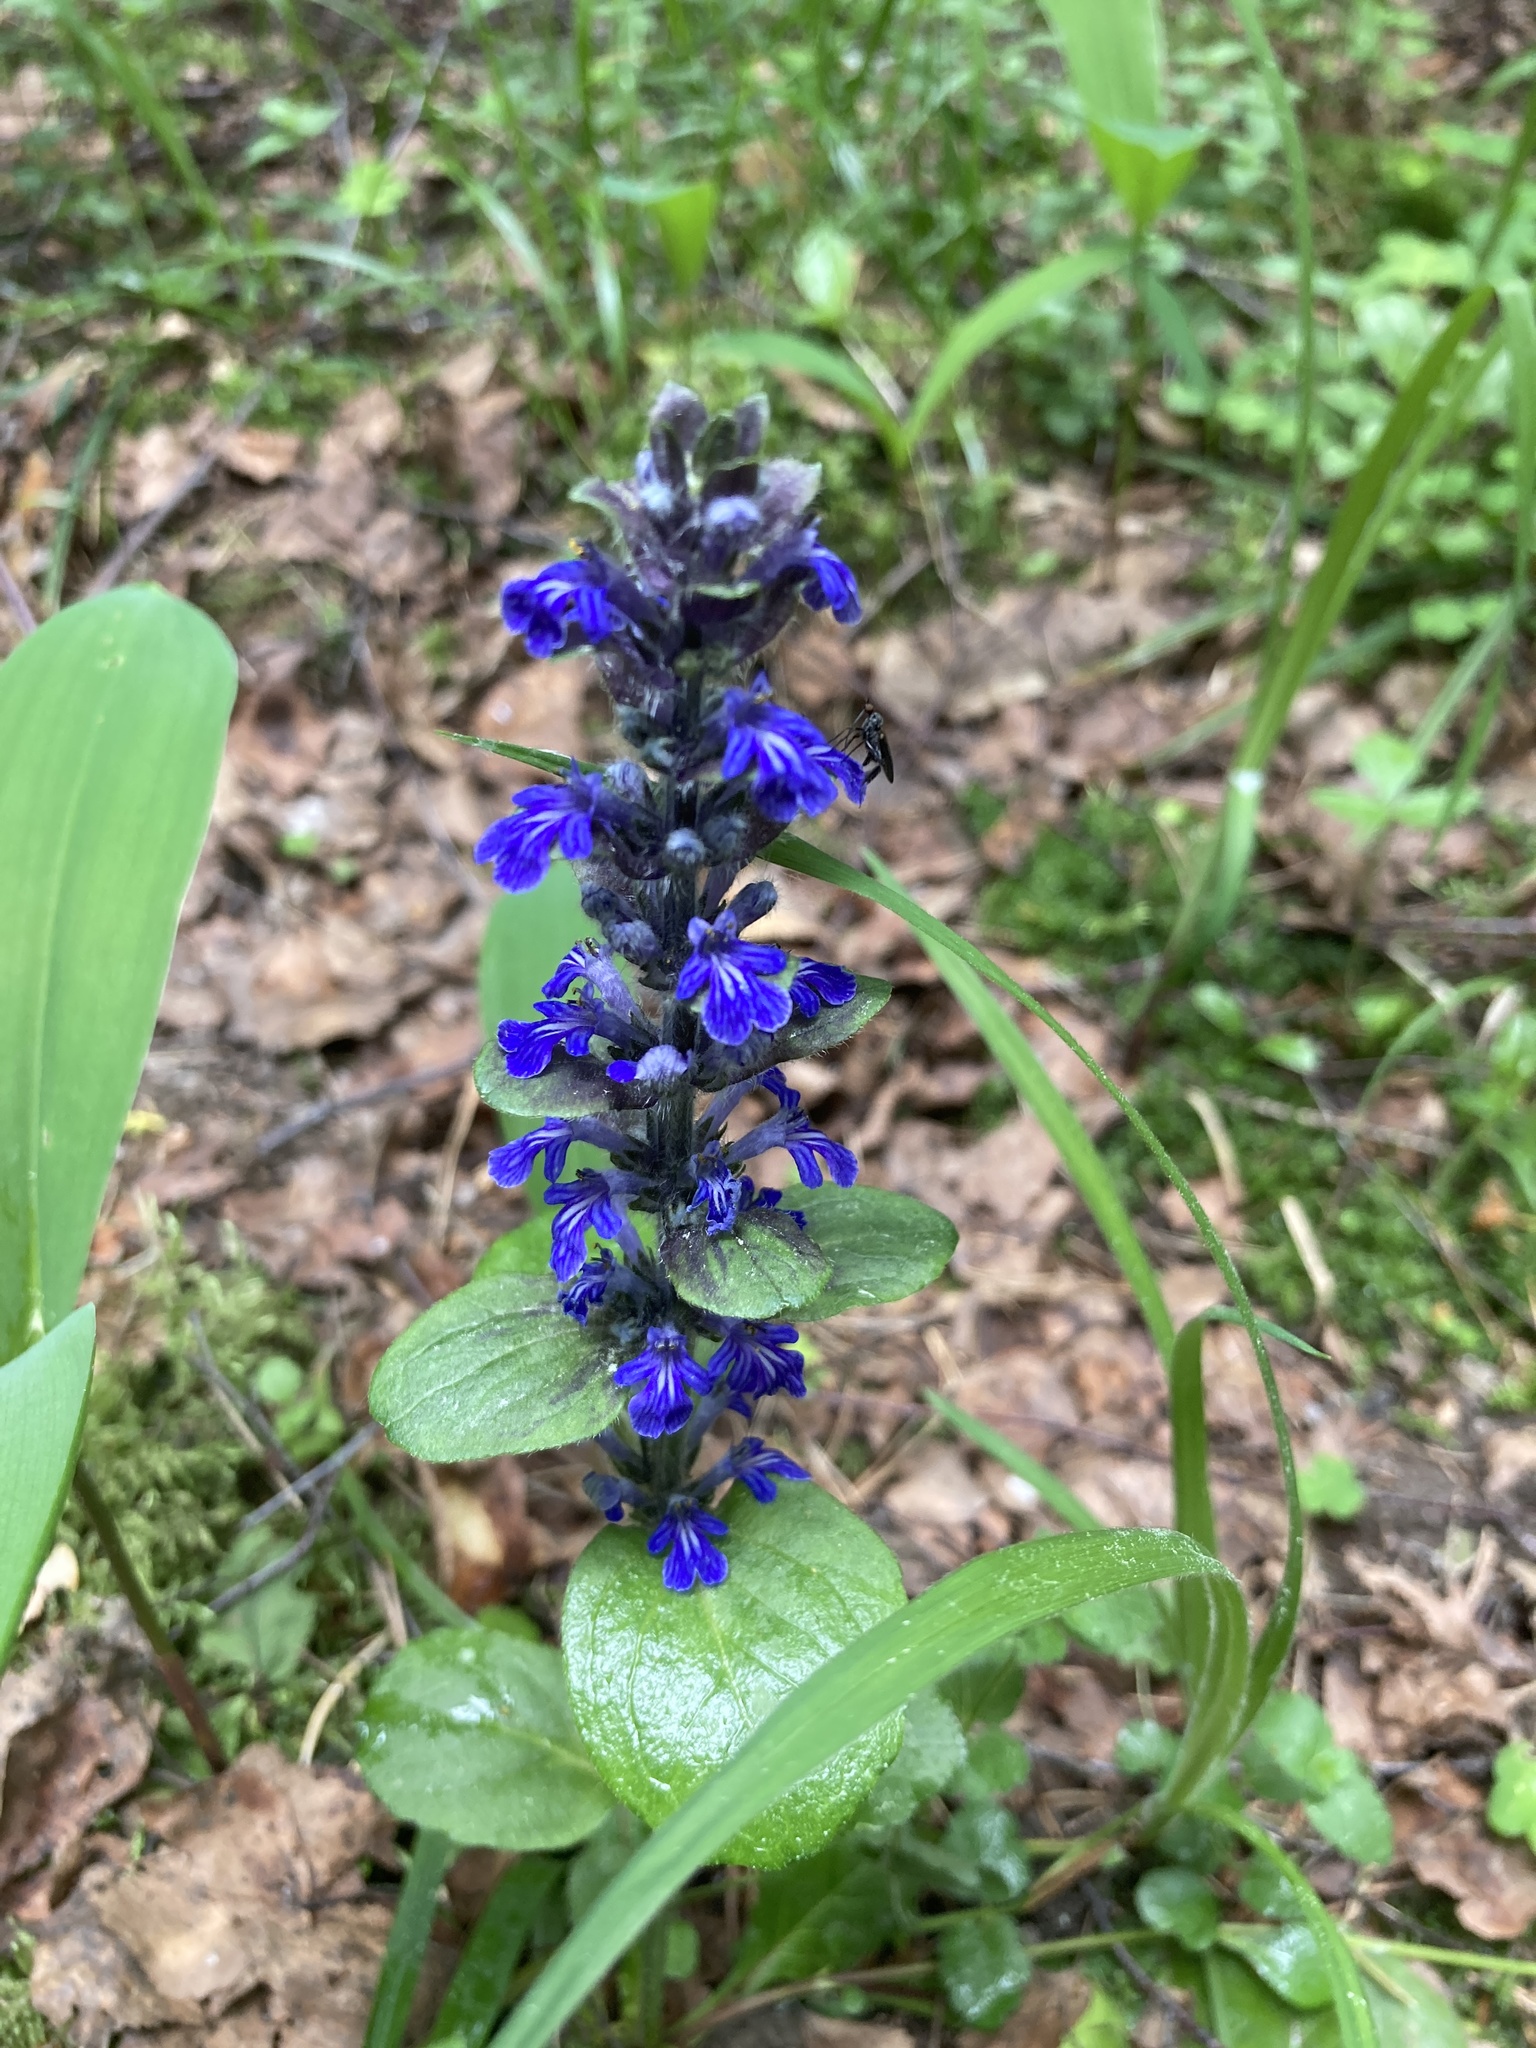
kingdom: Plantae
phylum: Tracheophyta
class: Magnoliopsida
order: Lamiales
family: Lamiaceae
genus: Ajuga
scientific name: Ajuga reptans
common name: Bugle
